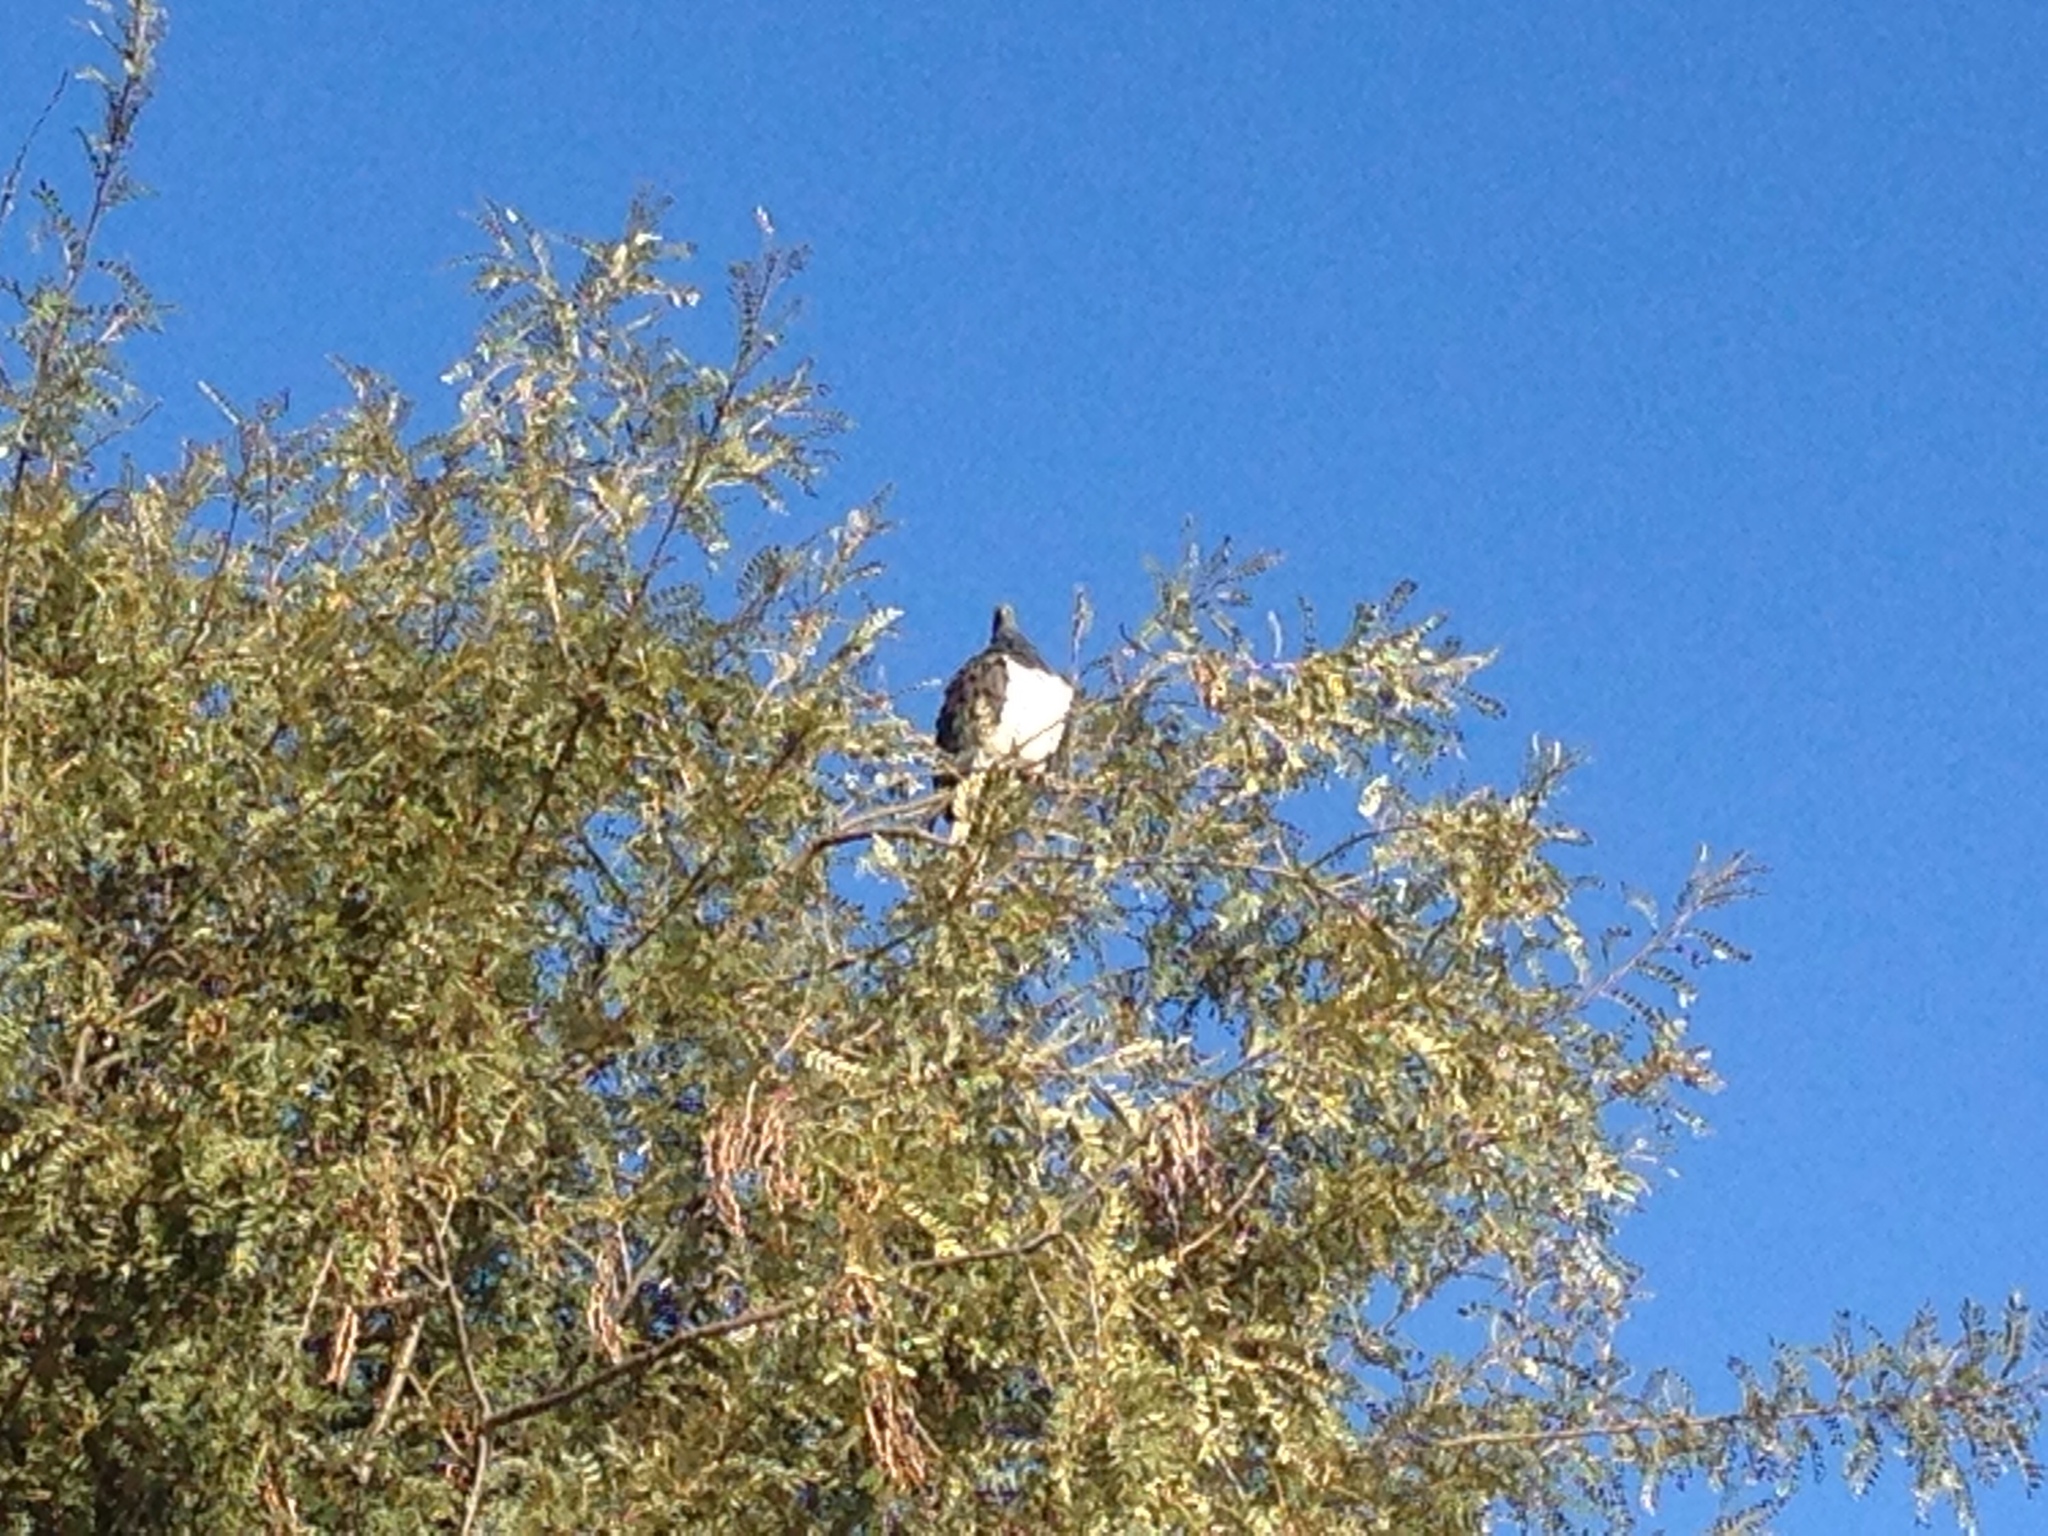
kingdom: Animalia
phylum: Chordata
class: Aves
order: Columbiformes
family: Columbidae
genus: Hemiphaga
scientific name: Hemiphaga novaeseelandiae
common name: New zealand pigeon
